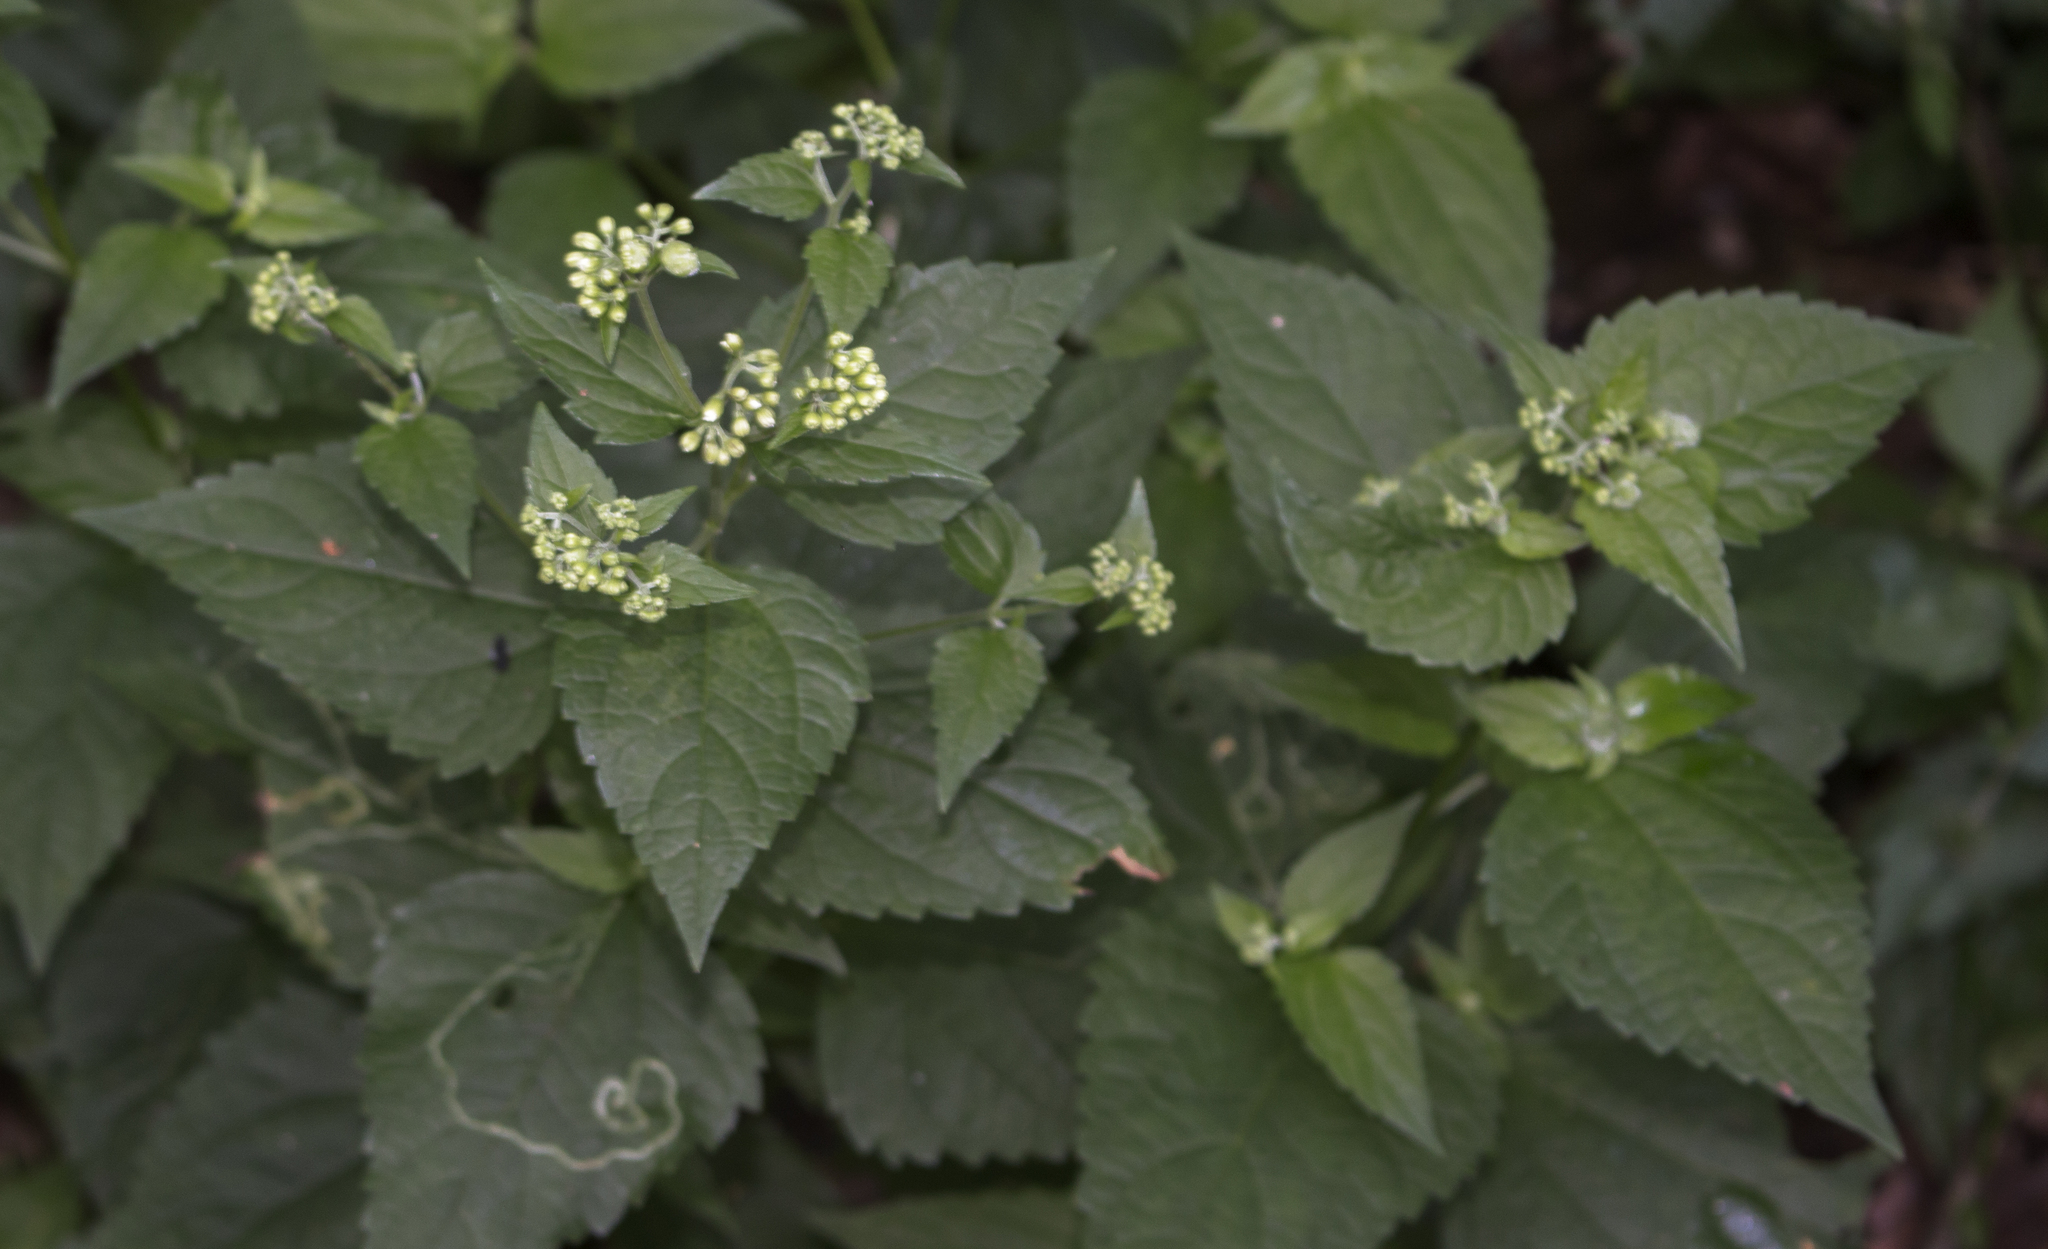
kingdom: Plantae
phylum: Tracheophyta
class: Magnoliopsida
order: Asterales
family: Asteraceae
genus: Ageratina
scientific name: Ageratina altissima
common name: White snakeroot
